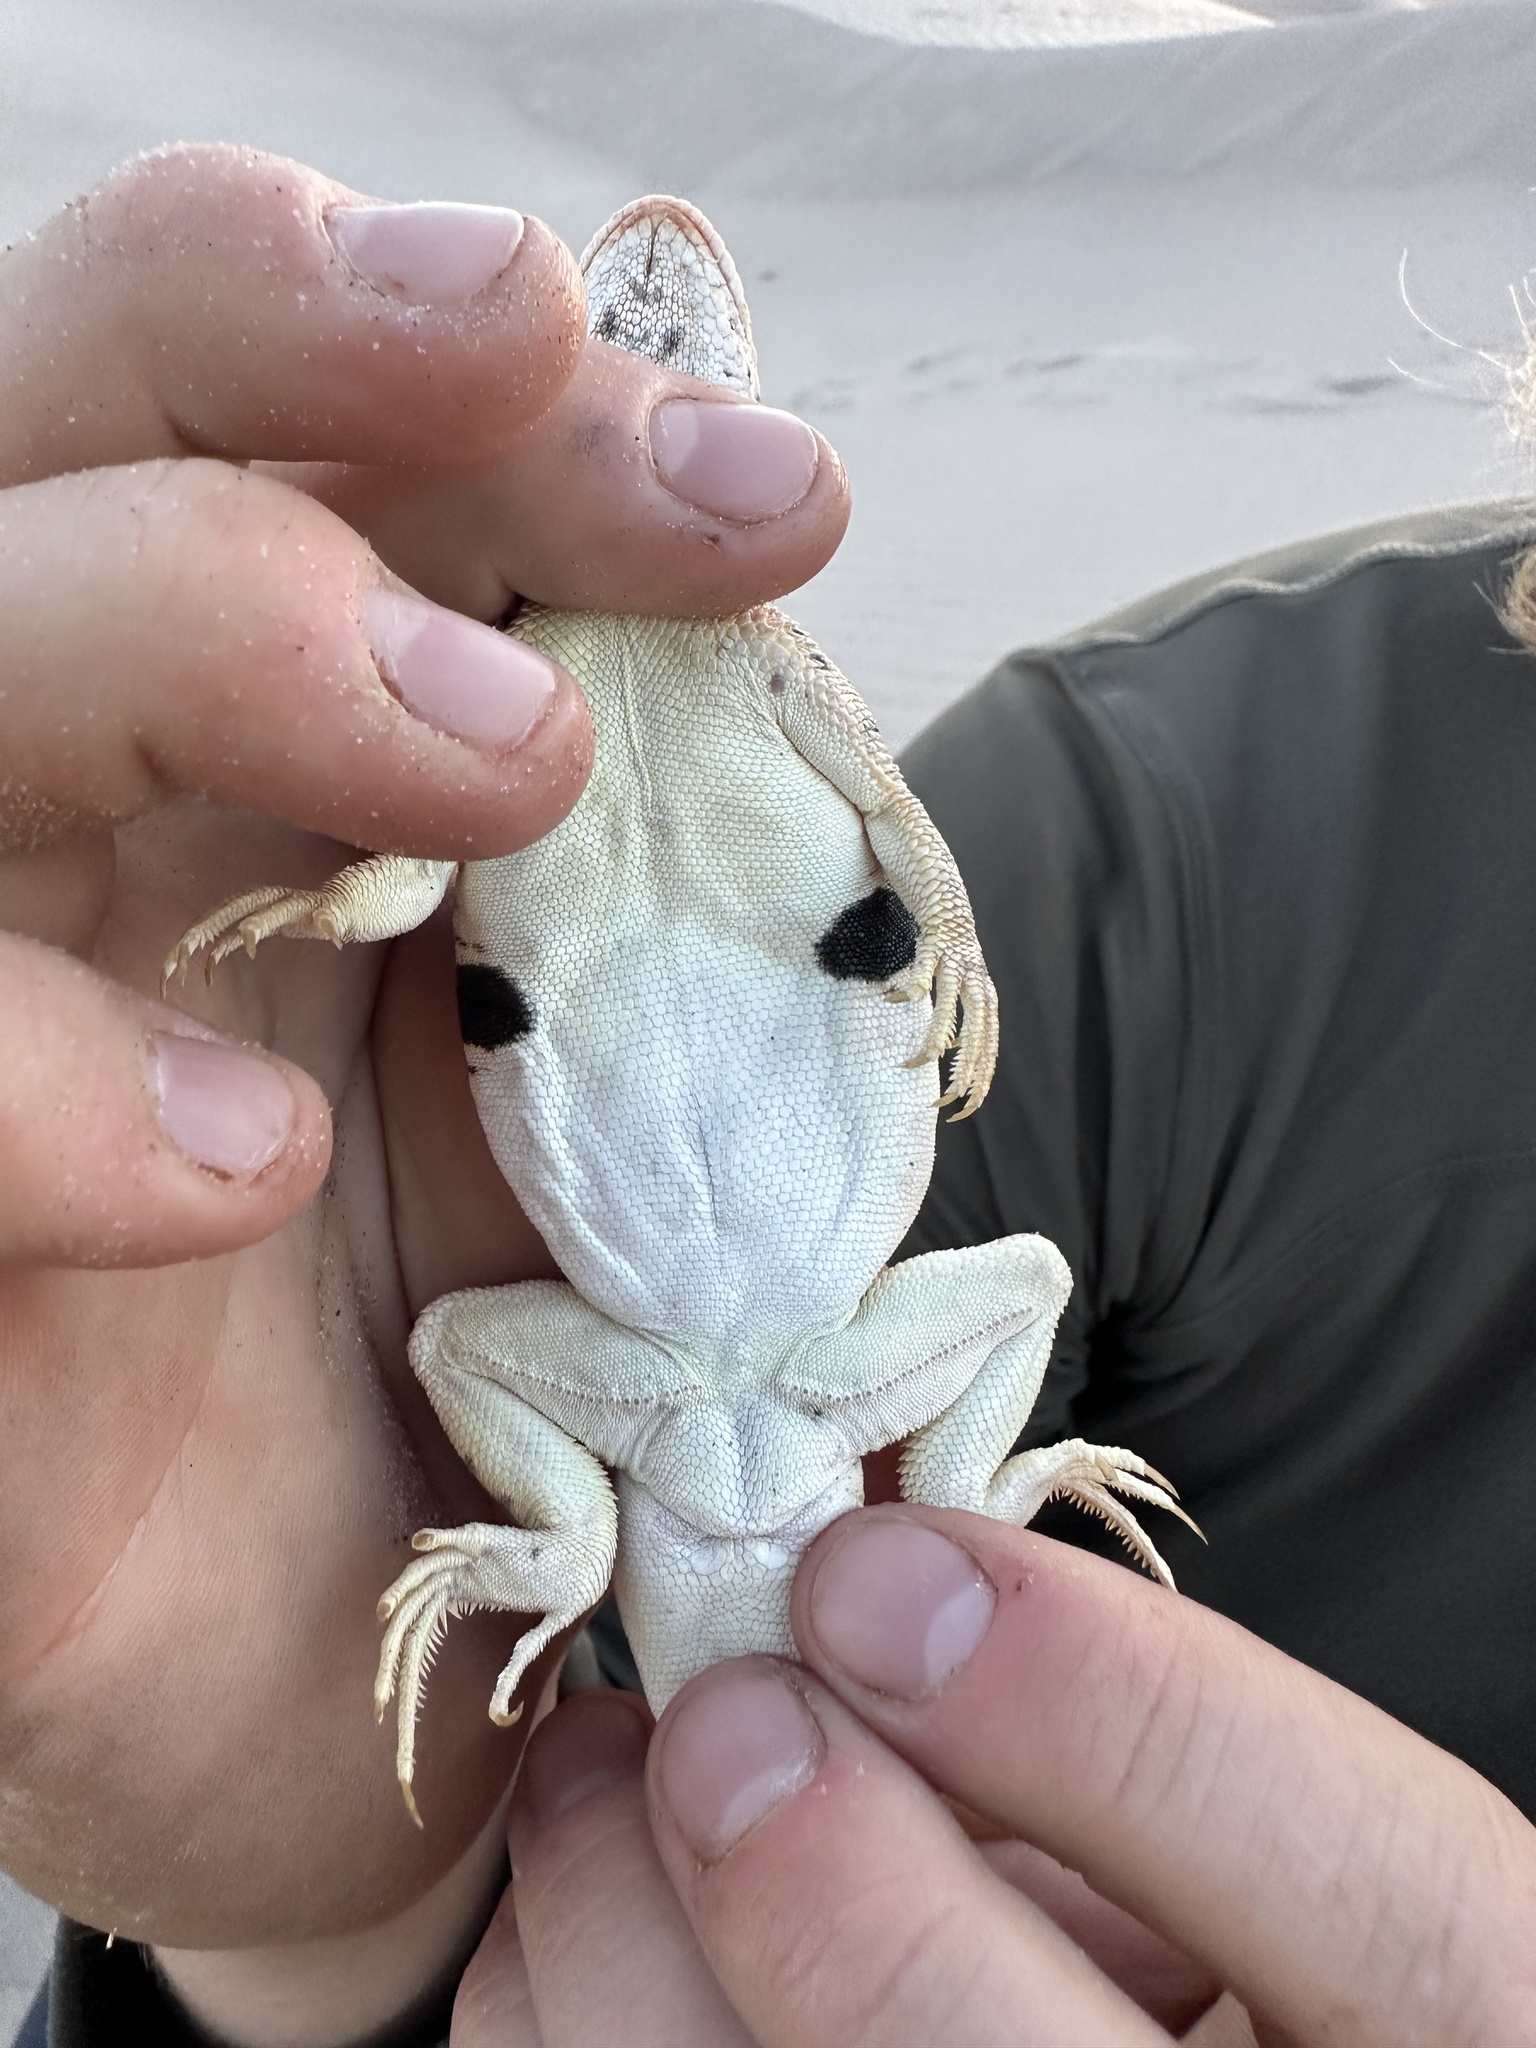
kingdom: Animalia
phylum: Chordata
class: Squamata
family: Phrynosomatidae
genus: Uma
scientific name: Uma scoparia
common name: Mojave fringe-toed lizard
